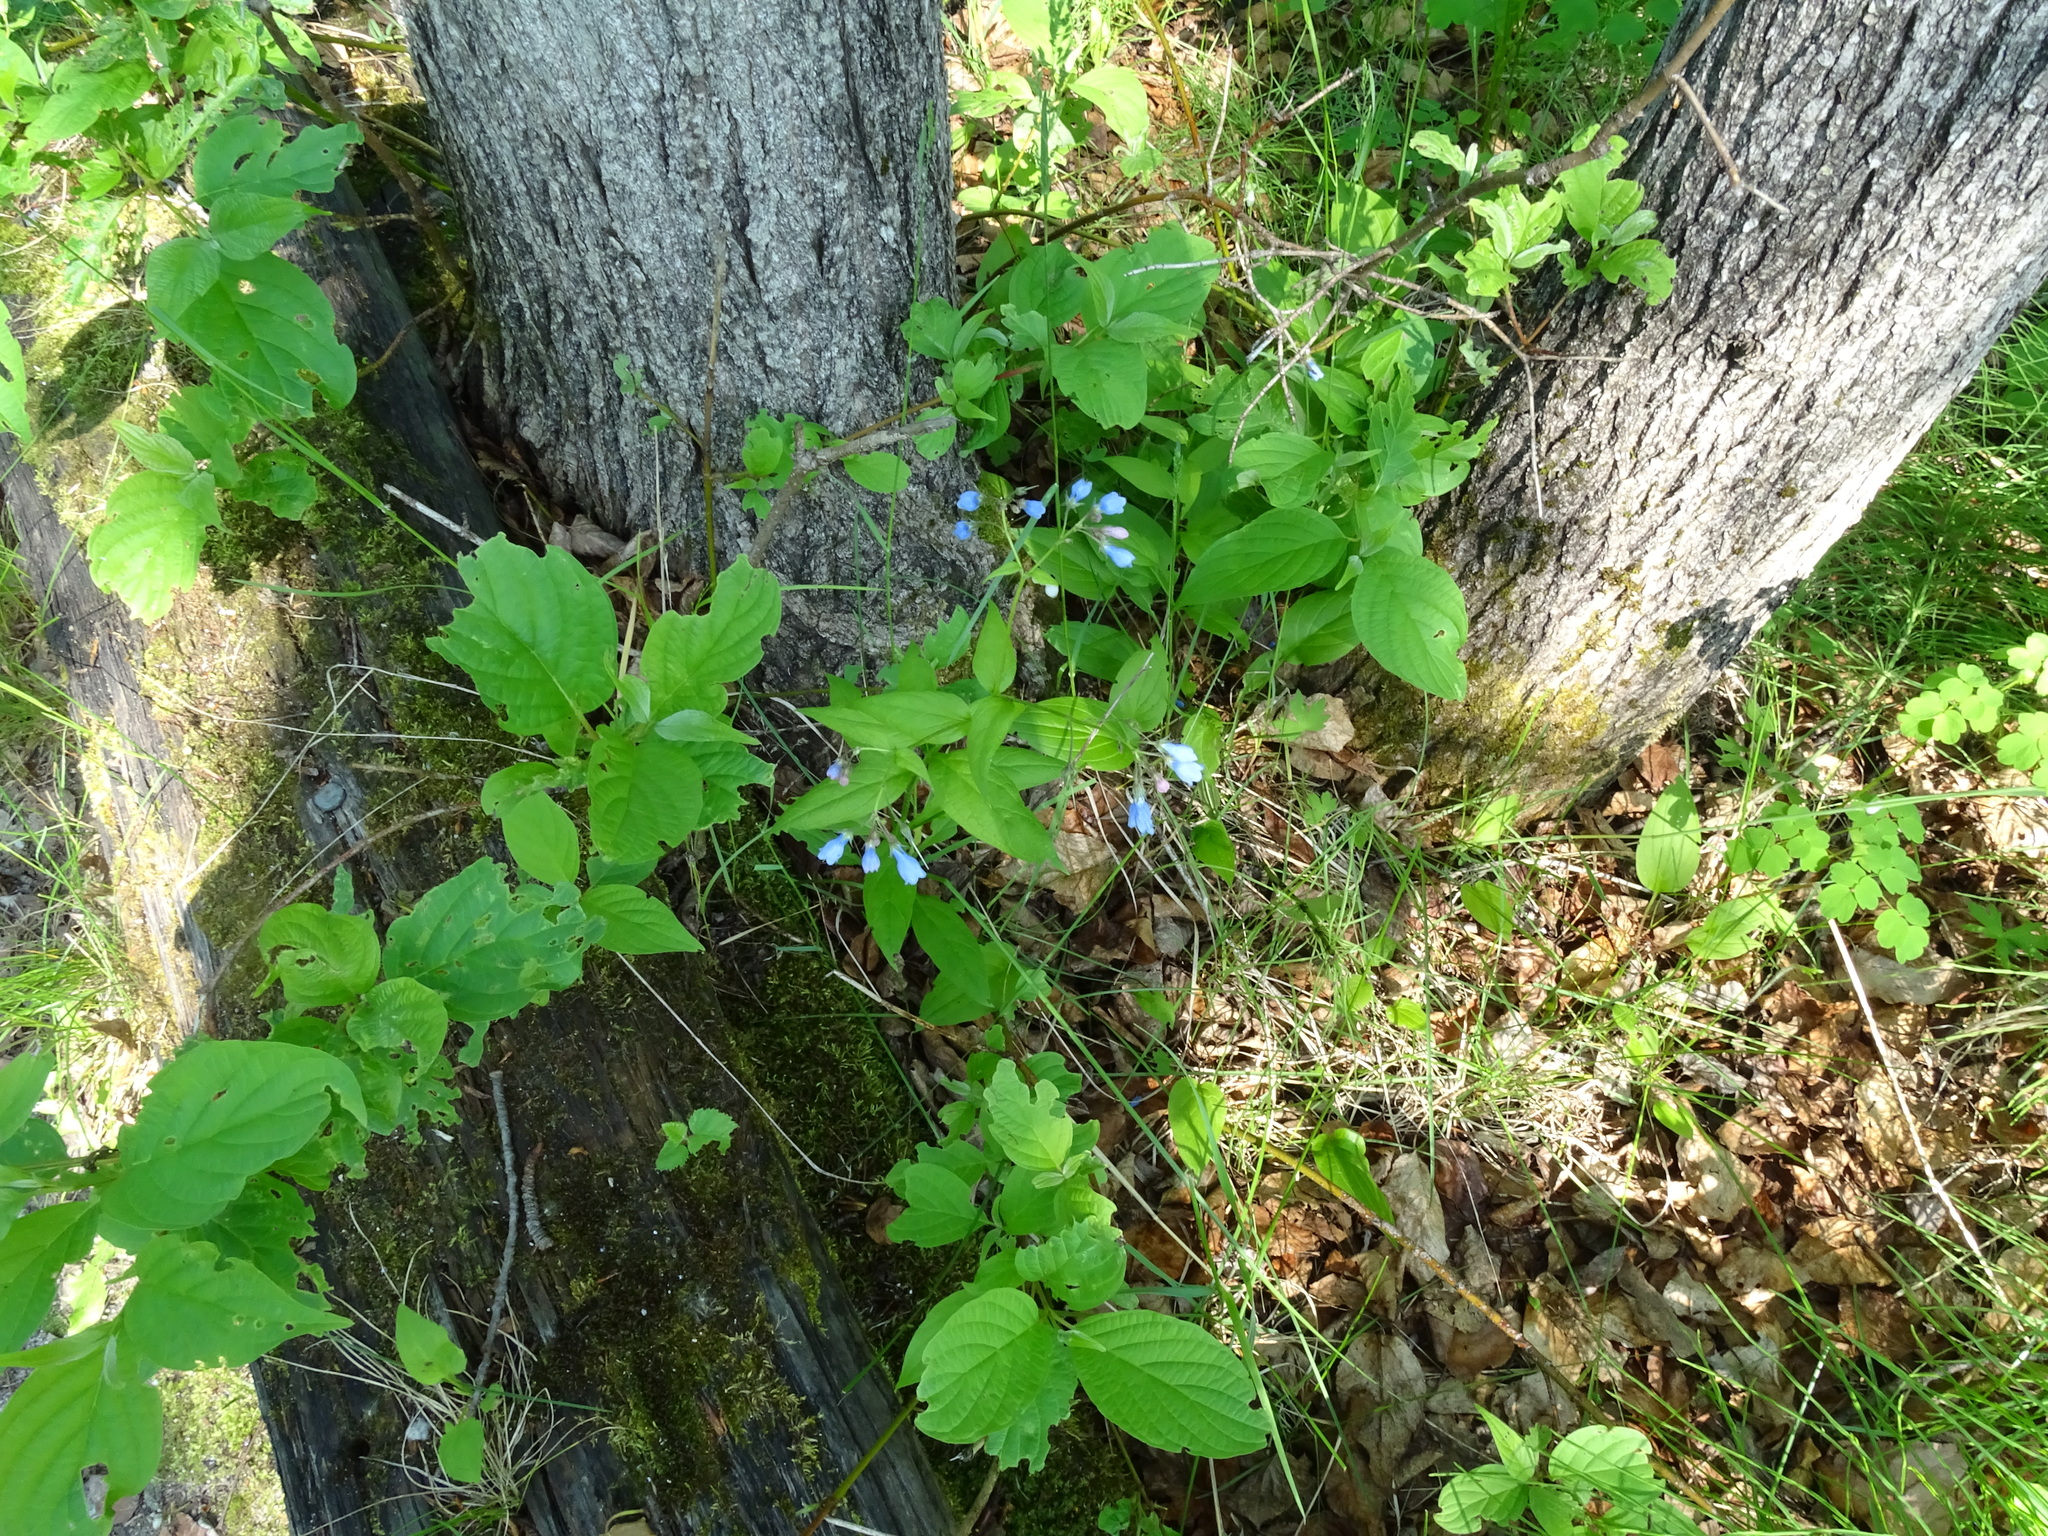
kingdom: Plantae
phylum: Tracheophyta
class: Magnoliopsida
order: Boraginales
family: Boraginaceae
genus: Mertensia
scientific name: Mertensia paniculata
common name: Panicled bluebells
